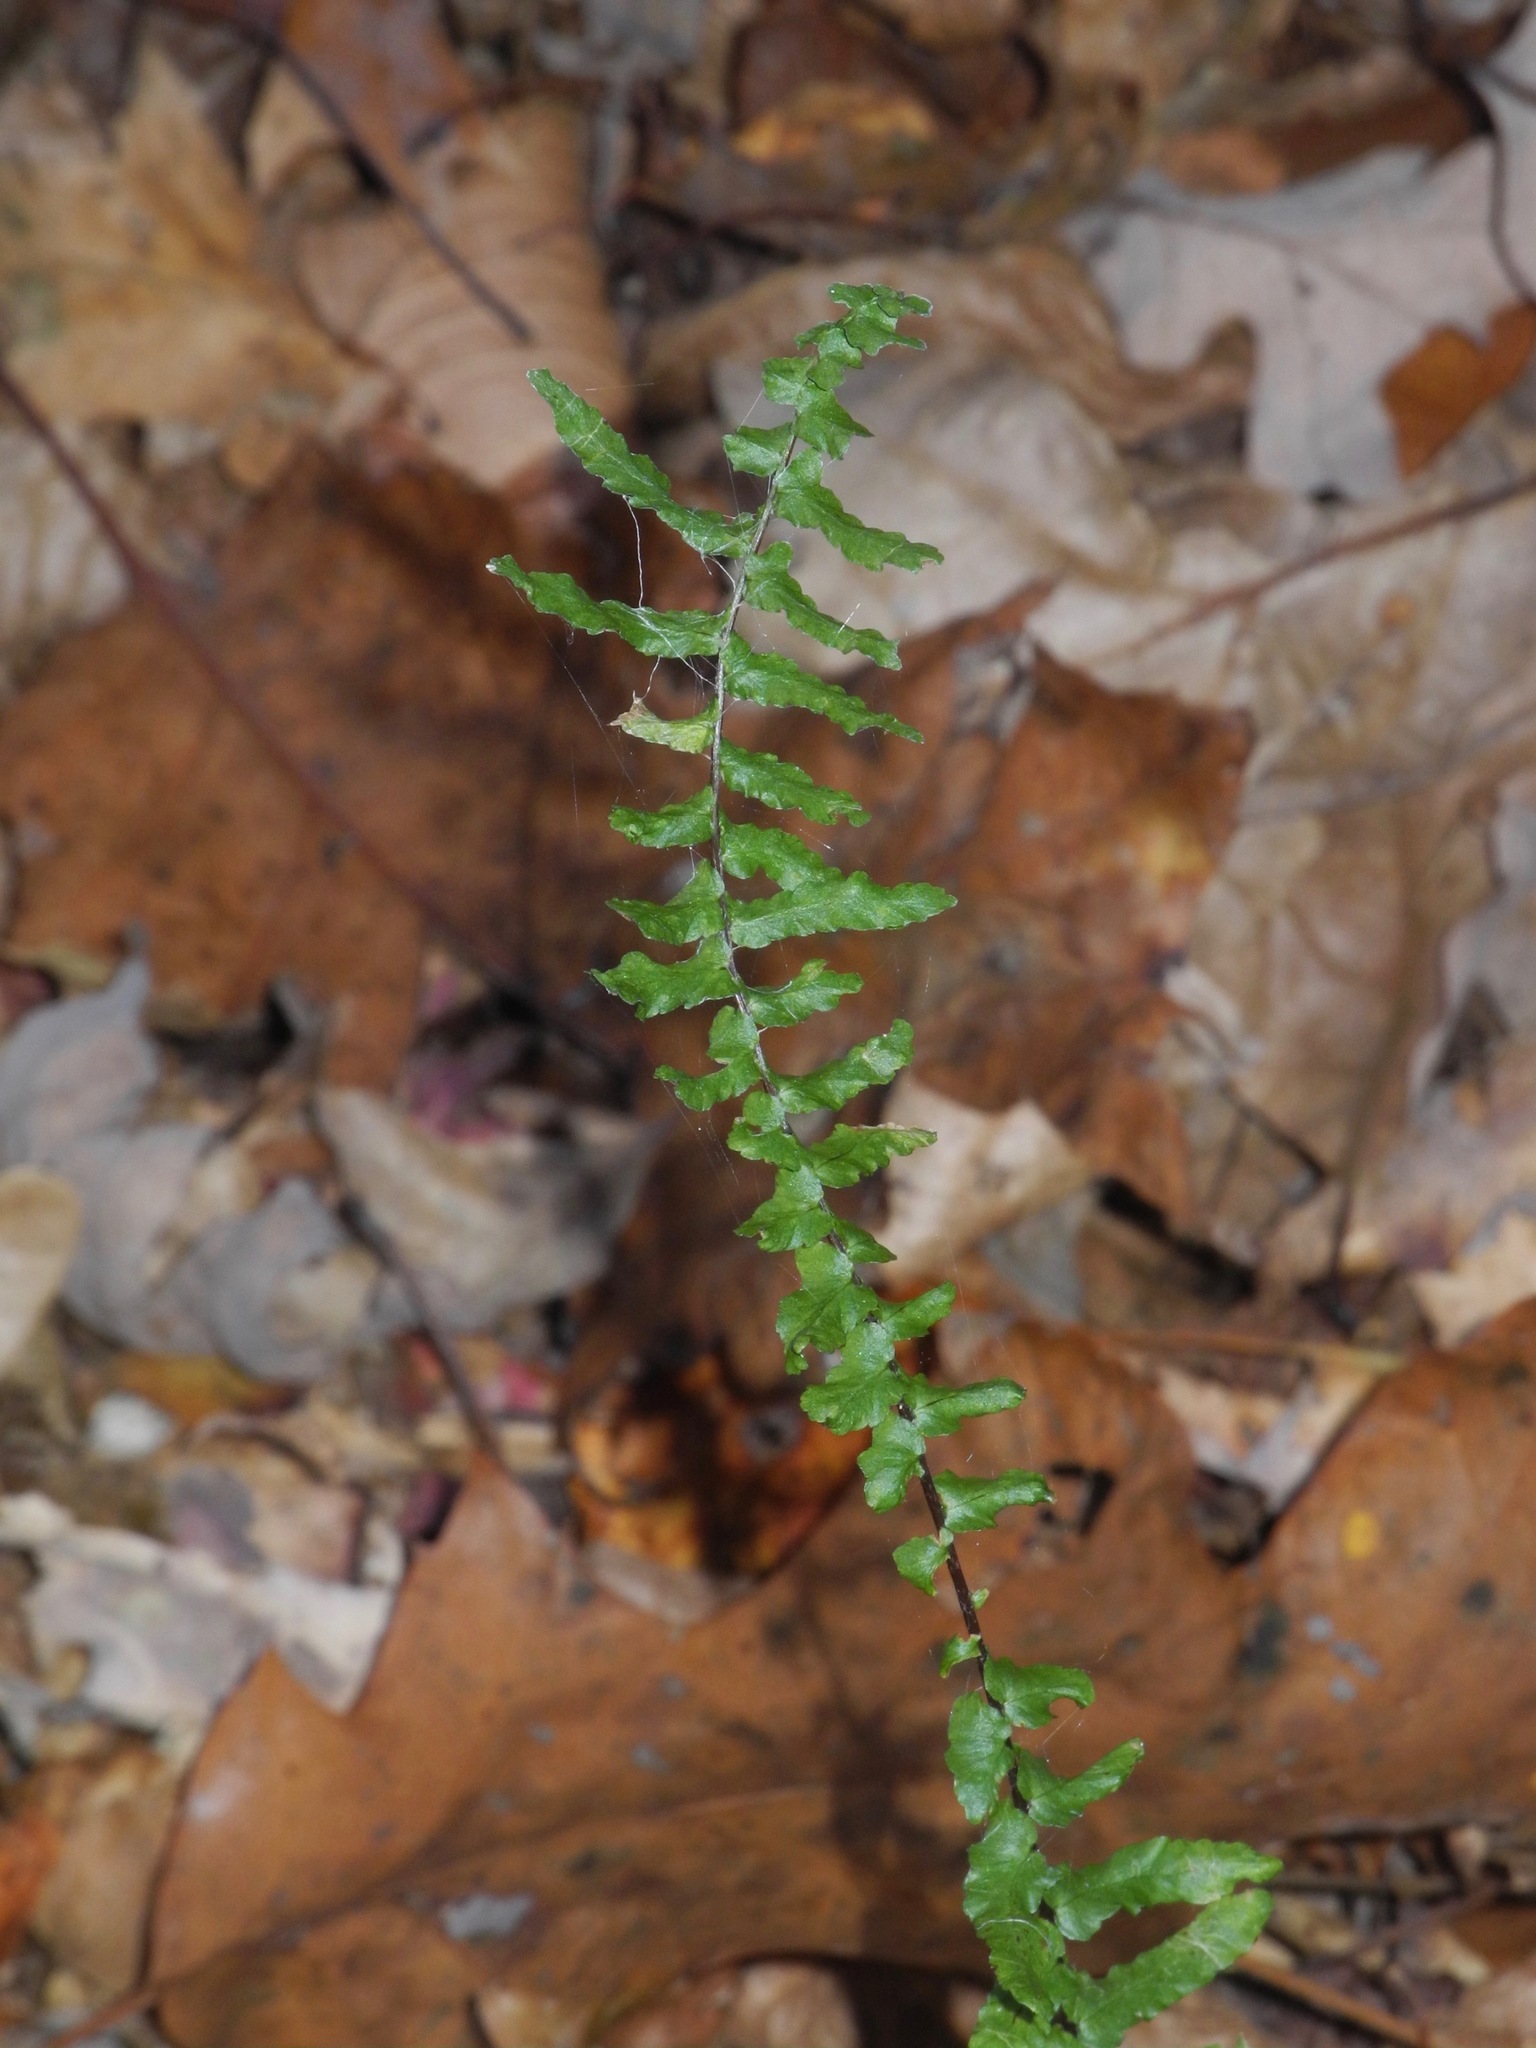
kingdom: Plantae
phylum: Tracheophyta
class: Polypodiopsida
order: Polypodiales
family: Aspleniaceae
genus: Asplenium
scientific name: Asplenium platyneuron
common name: Ebony spleenwort
